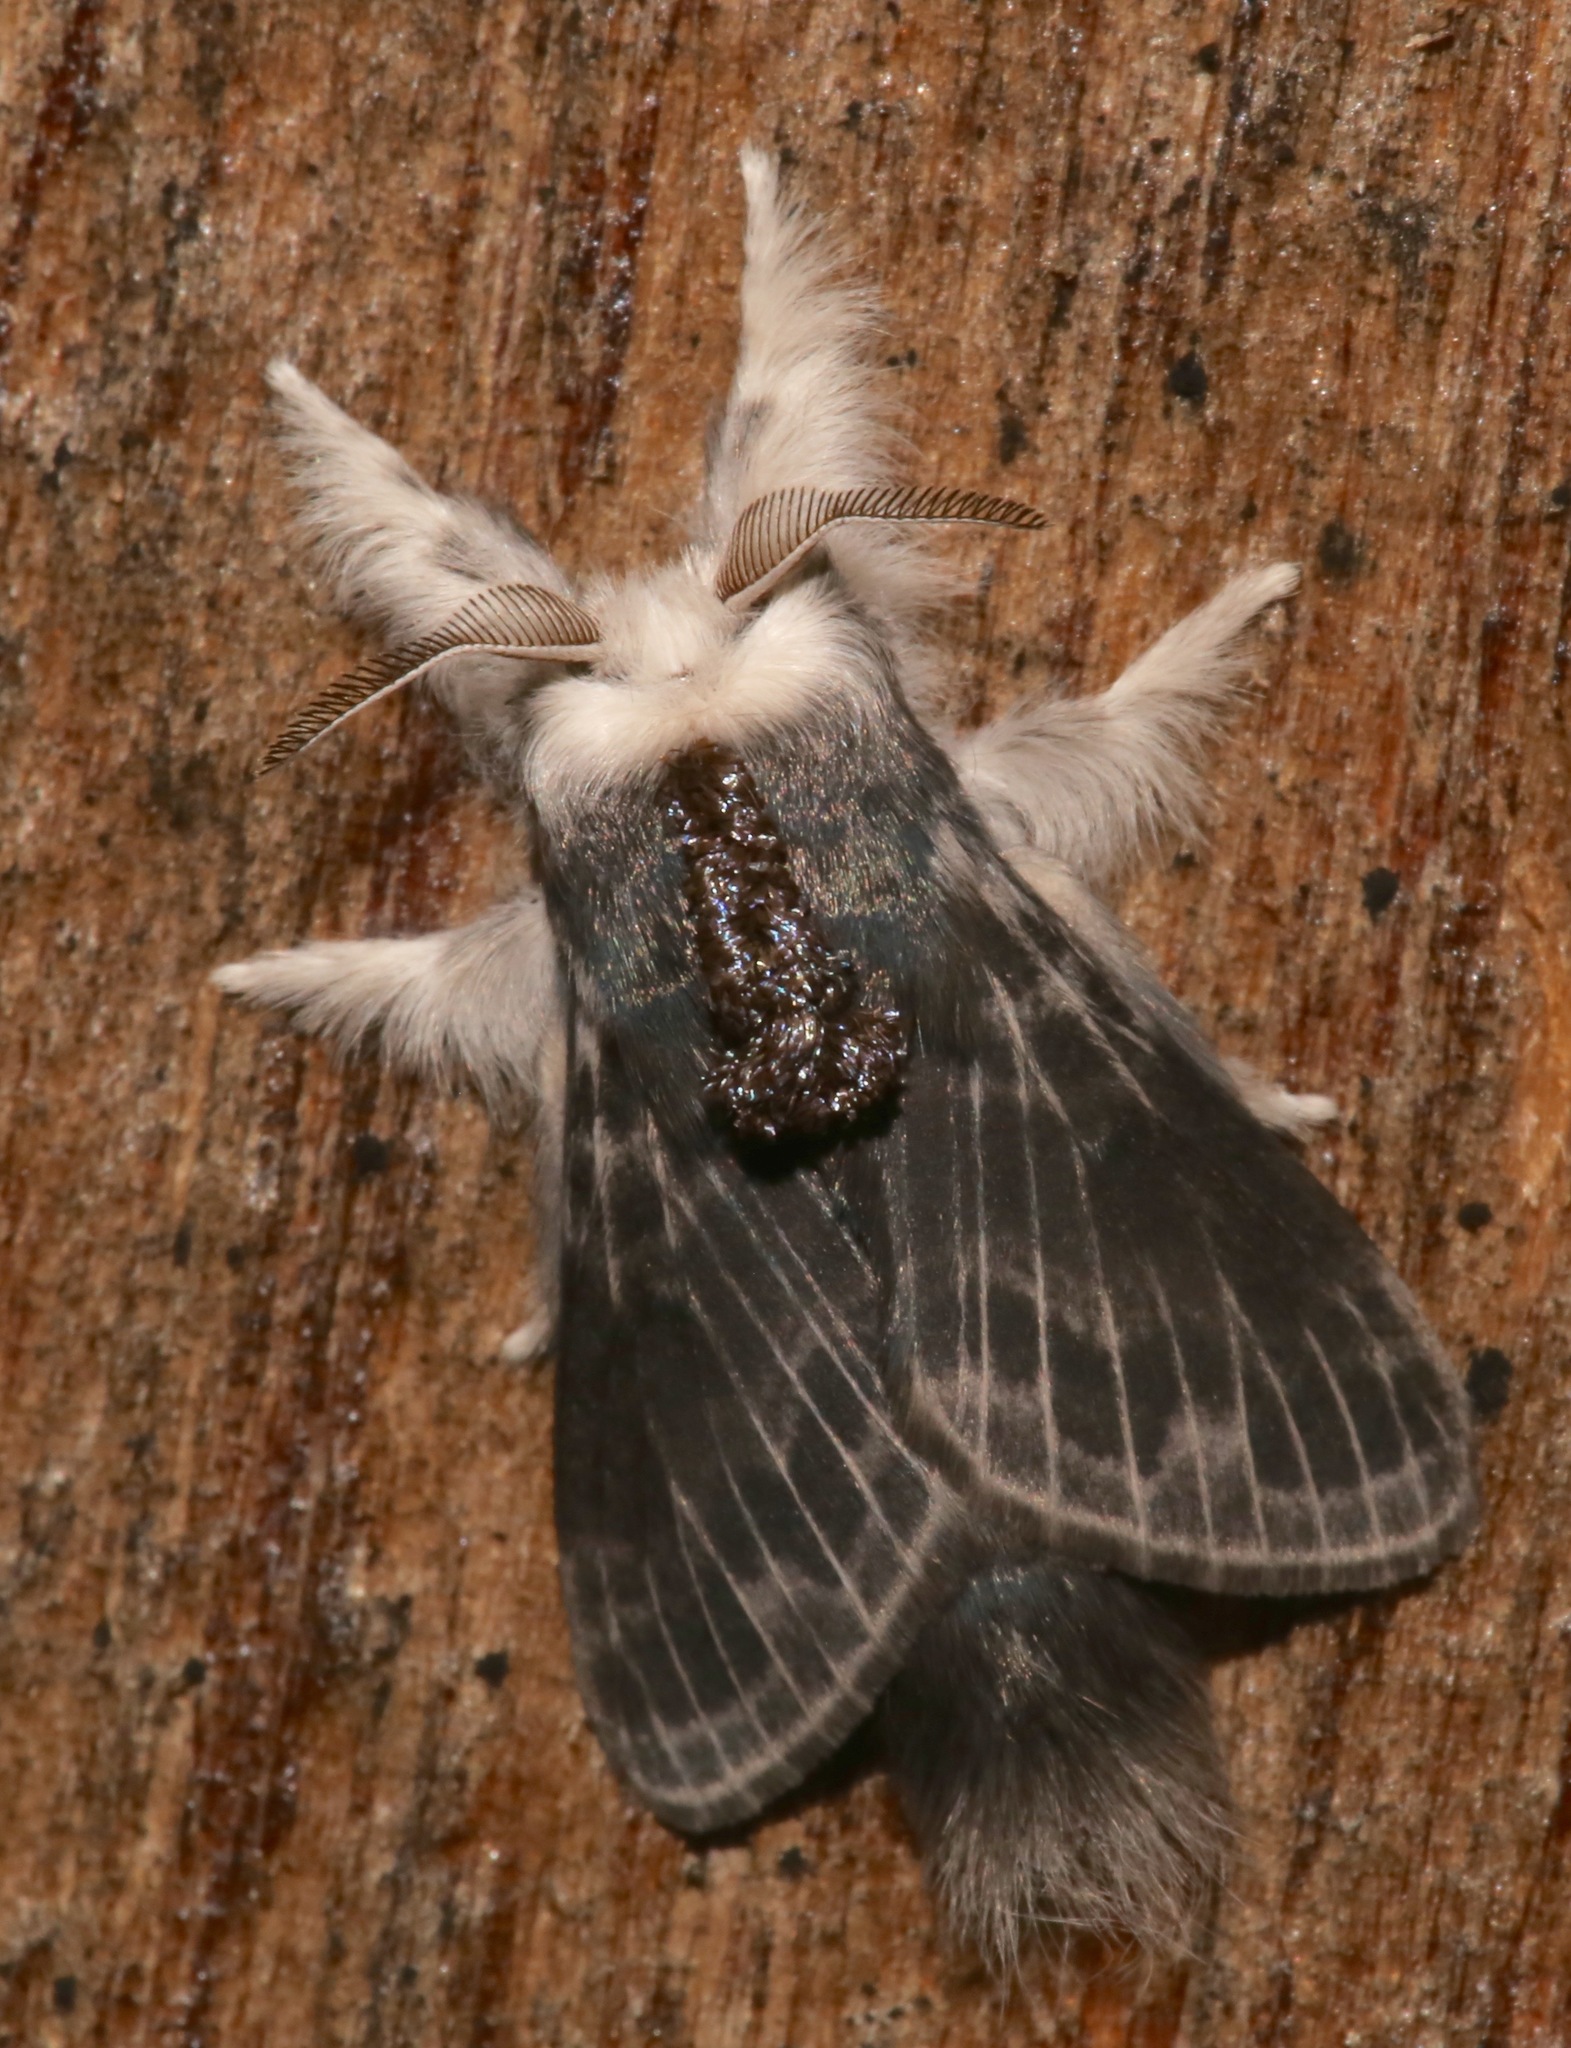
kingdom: Animalia
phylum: Arthropoda
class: Insecta
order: Lepidoptera
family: Lasiocampidae
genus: Tolype
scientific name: Tolype laricis
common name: Larch tolype moth
